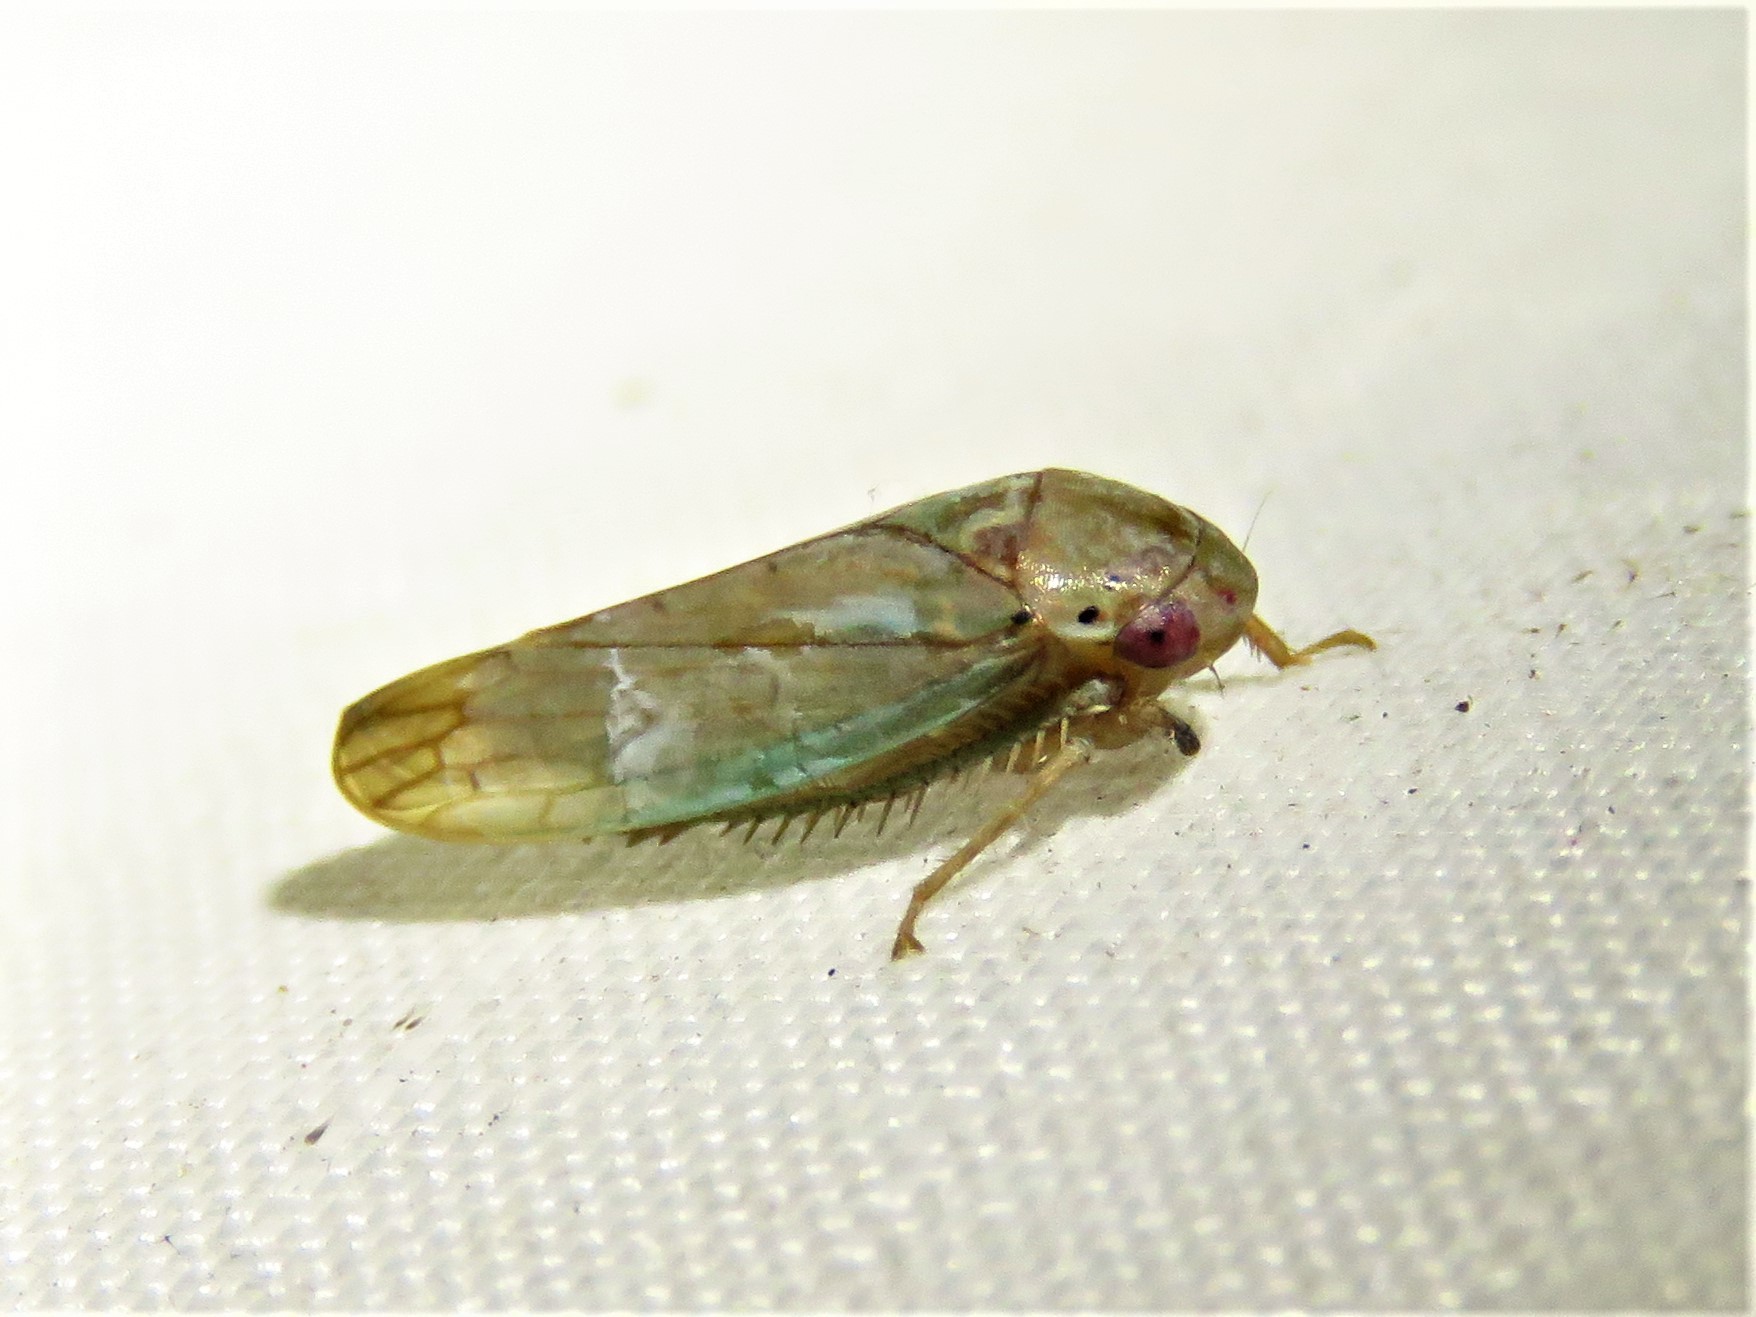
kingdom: Animalia
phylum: Arthropoda
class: Insecta
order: Hemiptera
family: Cicadellidae
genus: Polana
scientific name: Polana quadrinotata
